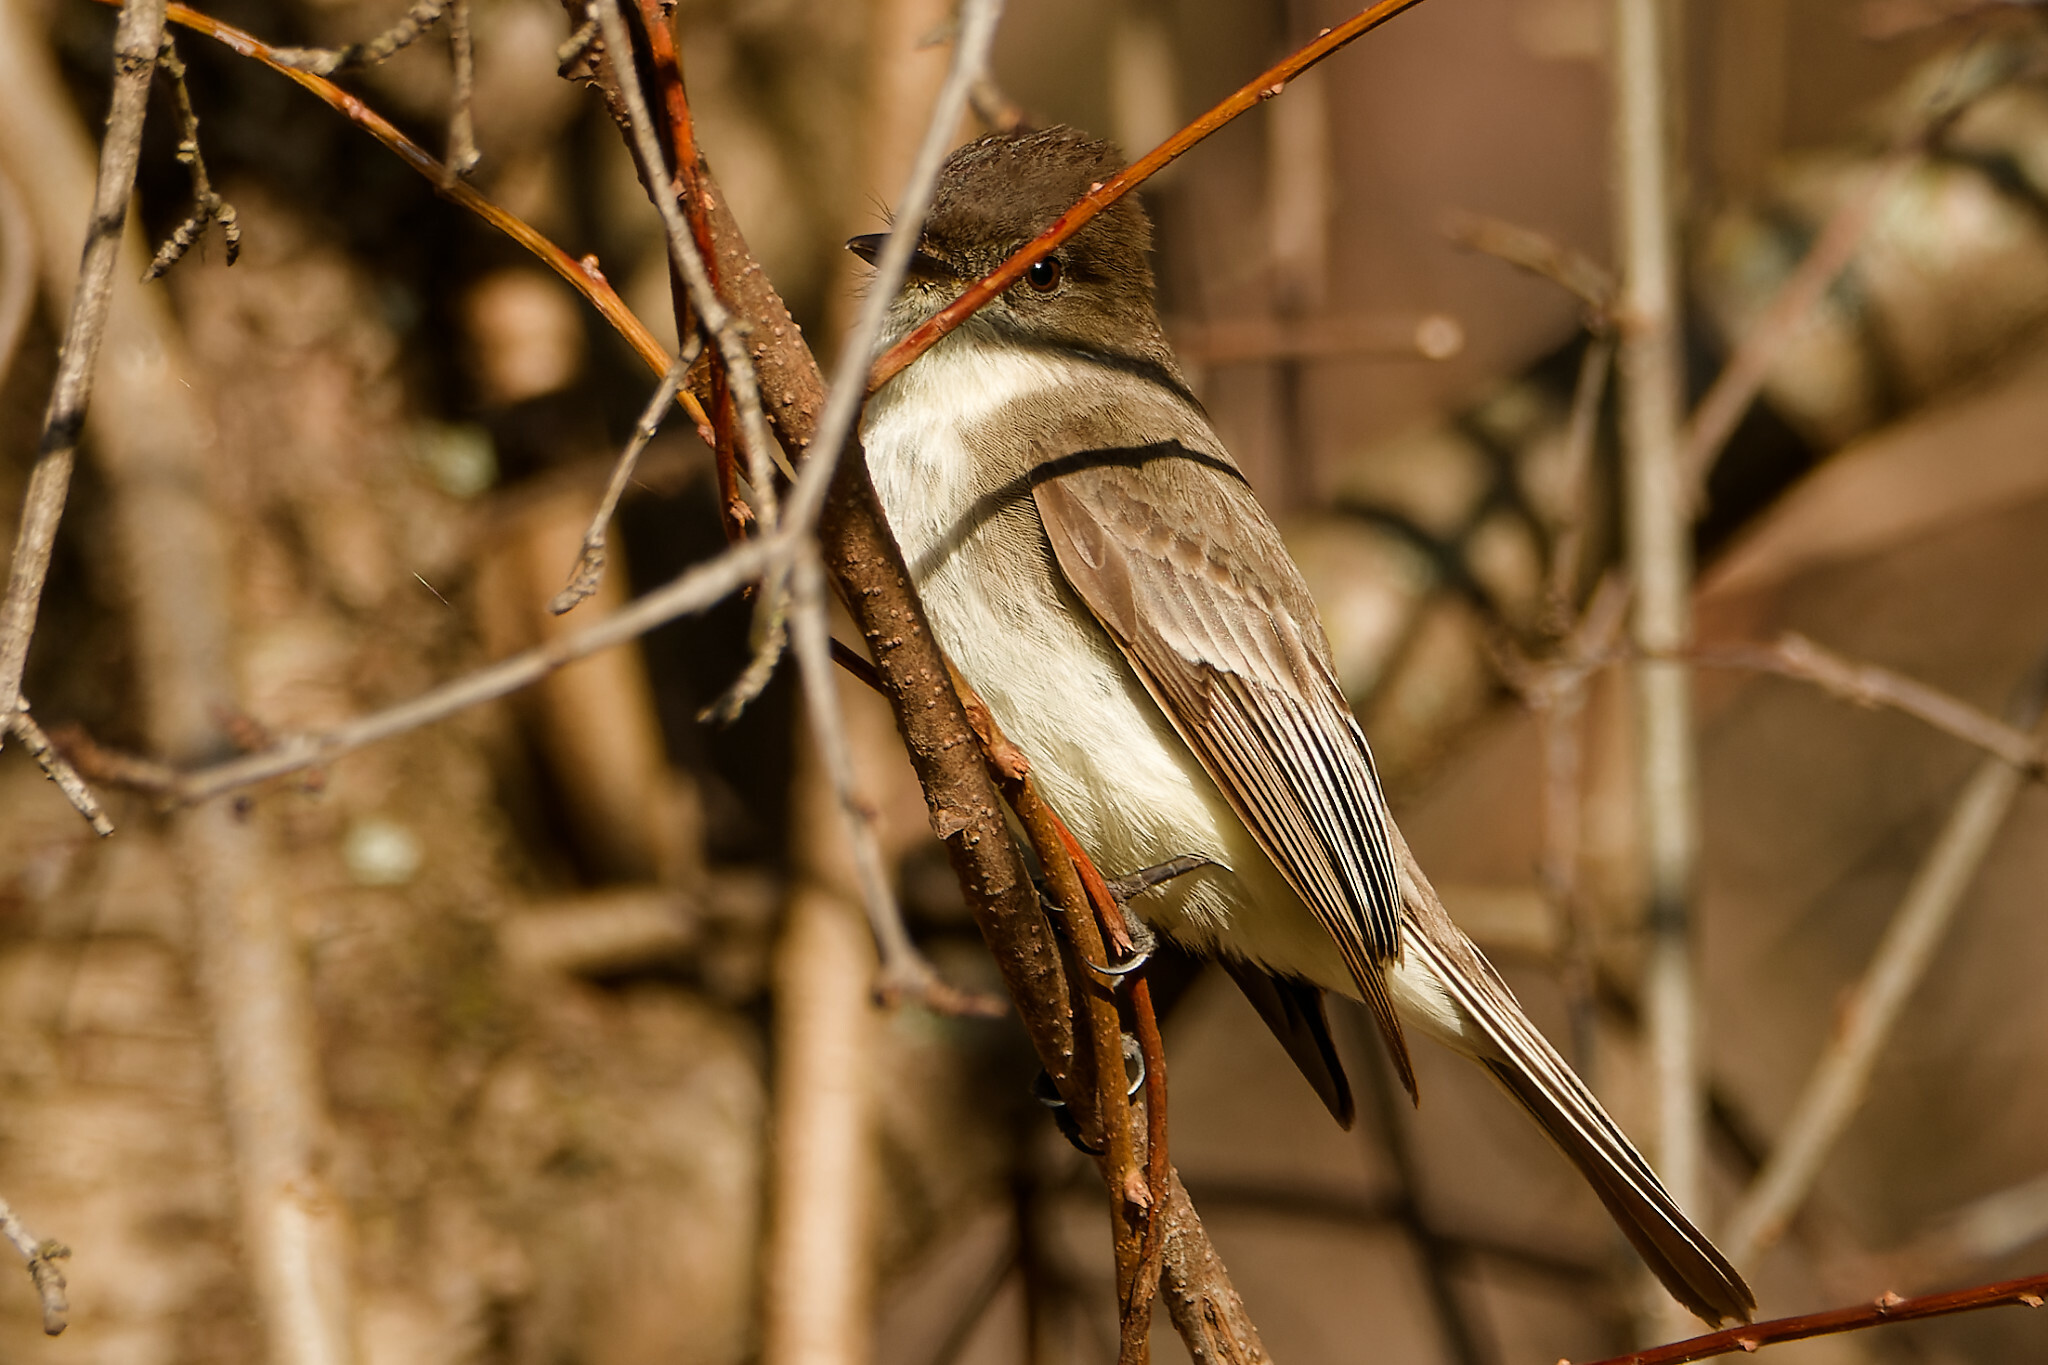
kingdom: Animalia
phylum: Chordata
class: Aves
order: Passeriformes
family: Tyrannidae
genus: Sayornis
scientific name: Sayornis phoebe
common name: Eastern phoebe
